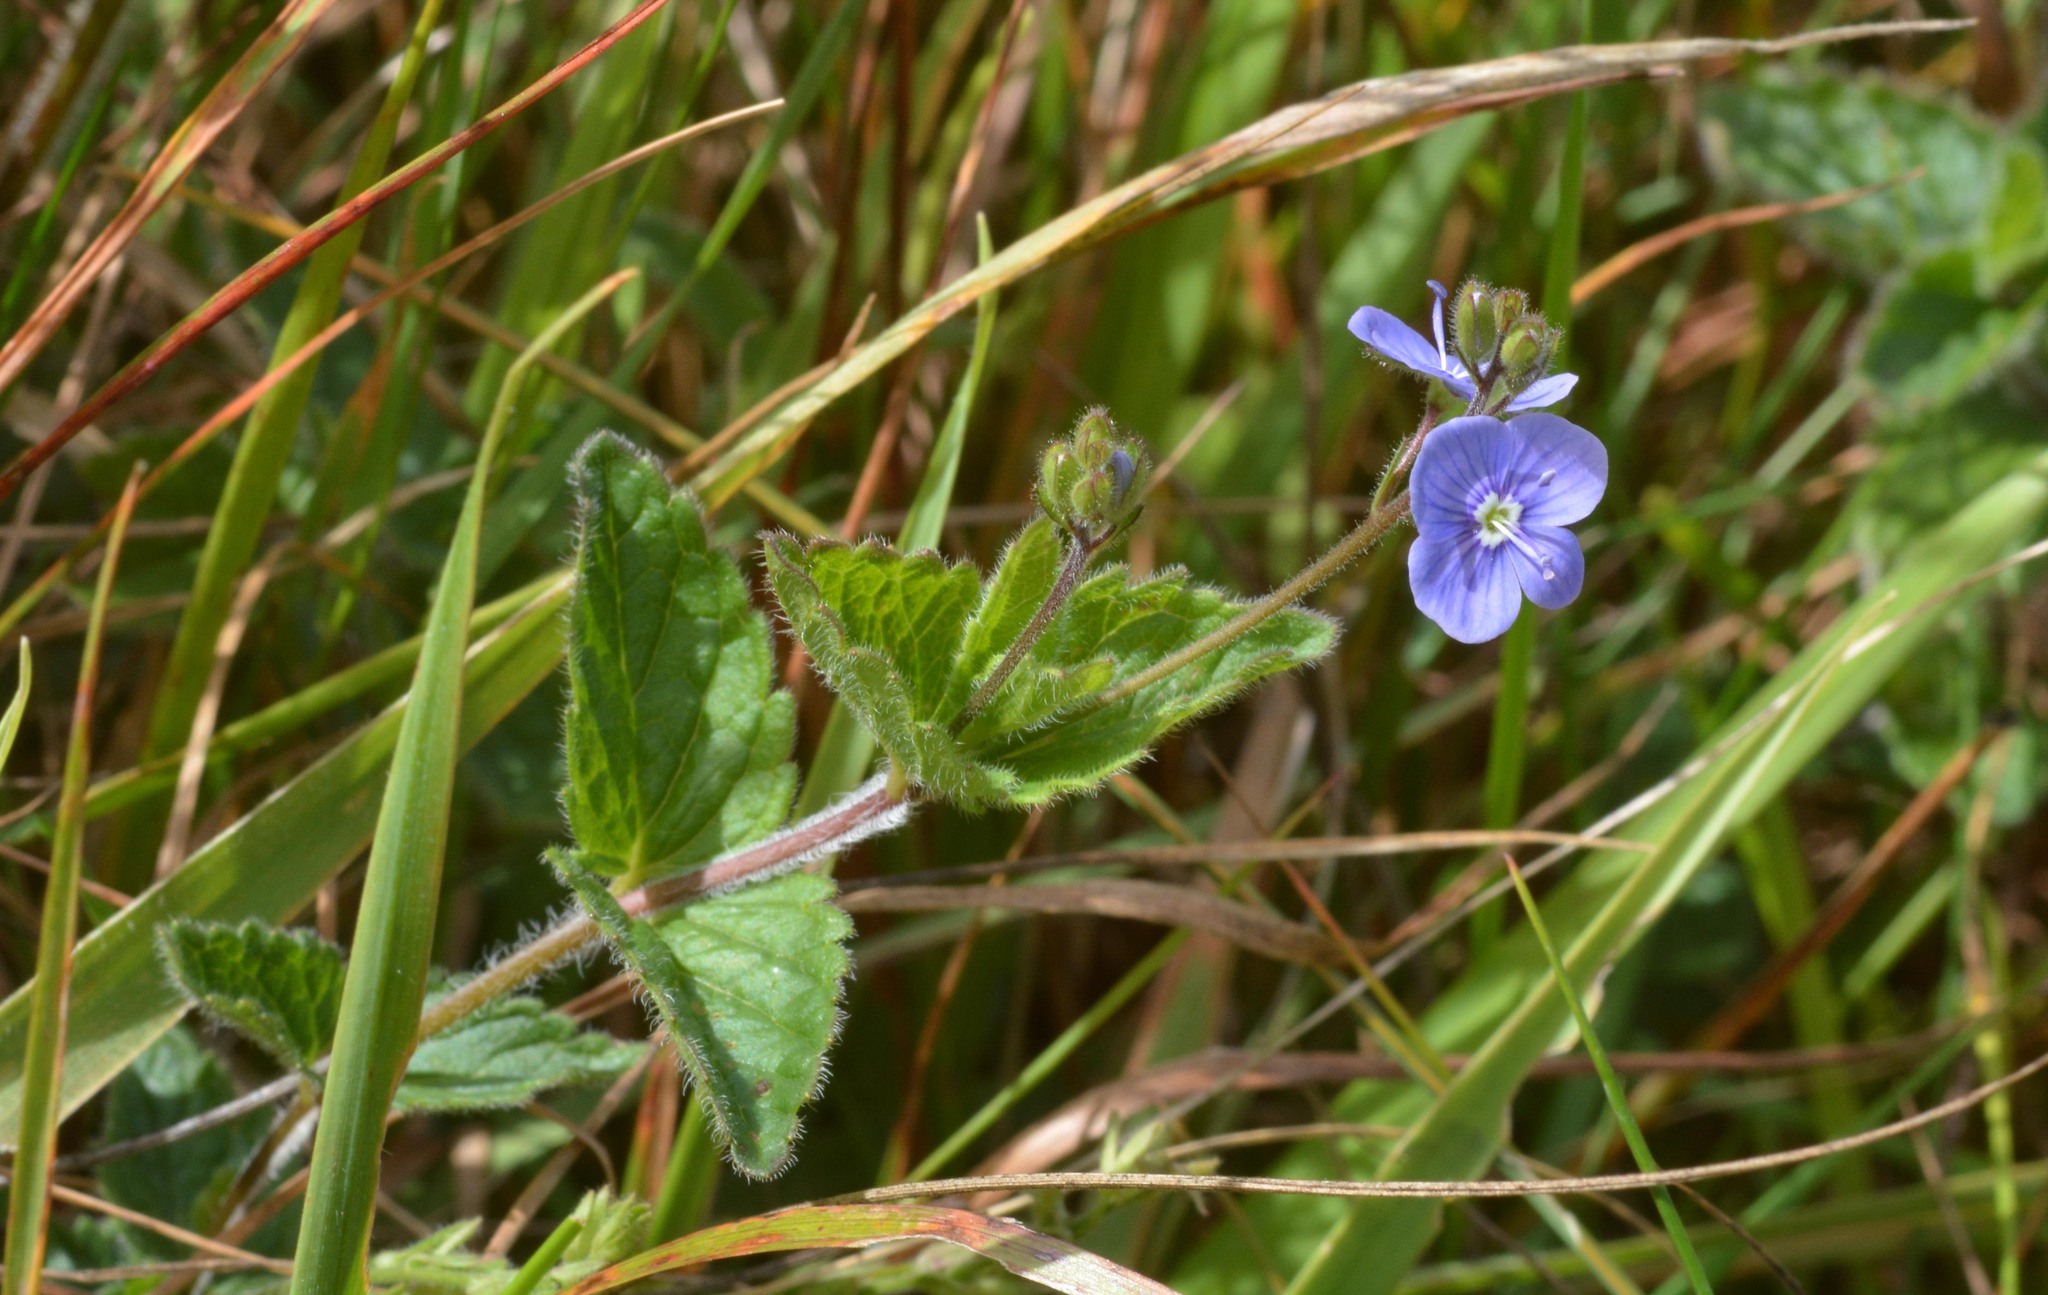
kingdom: Plantae
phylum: Tracheophyta
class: Magnoliopsida
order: Lamiales
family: Plantaginaceae
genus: Veronica
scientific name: Veronica chamaedrys
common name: Germander speedwell
